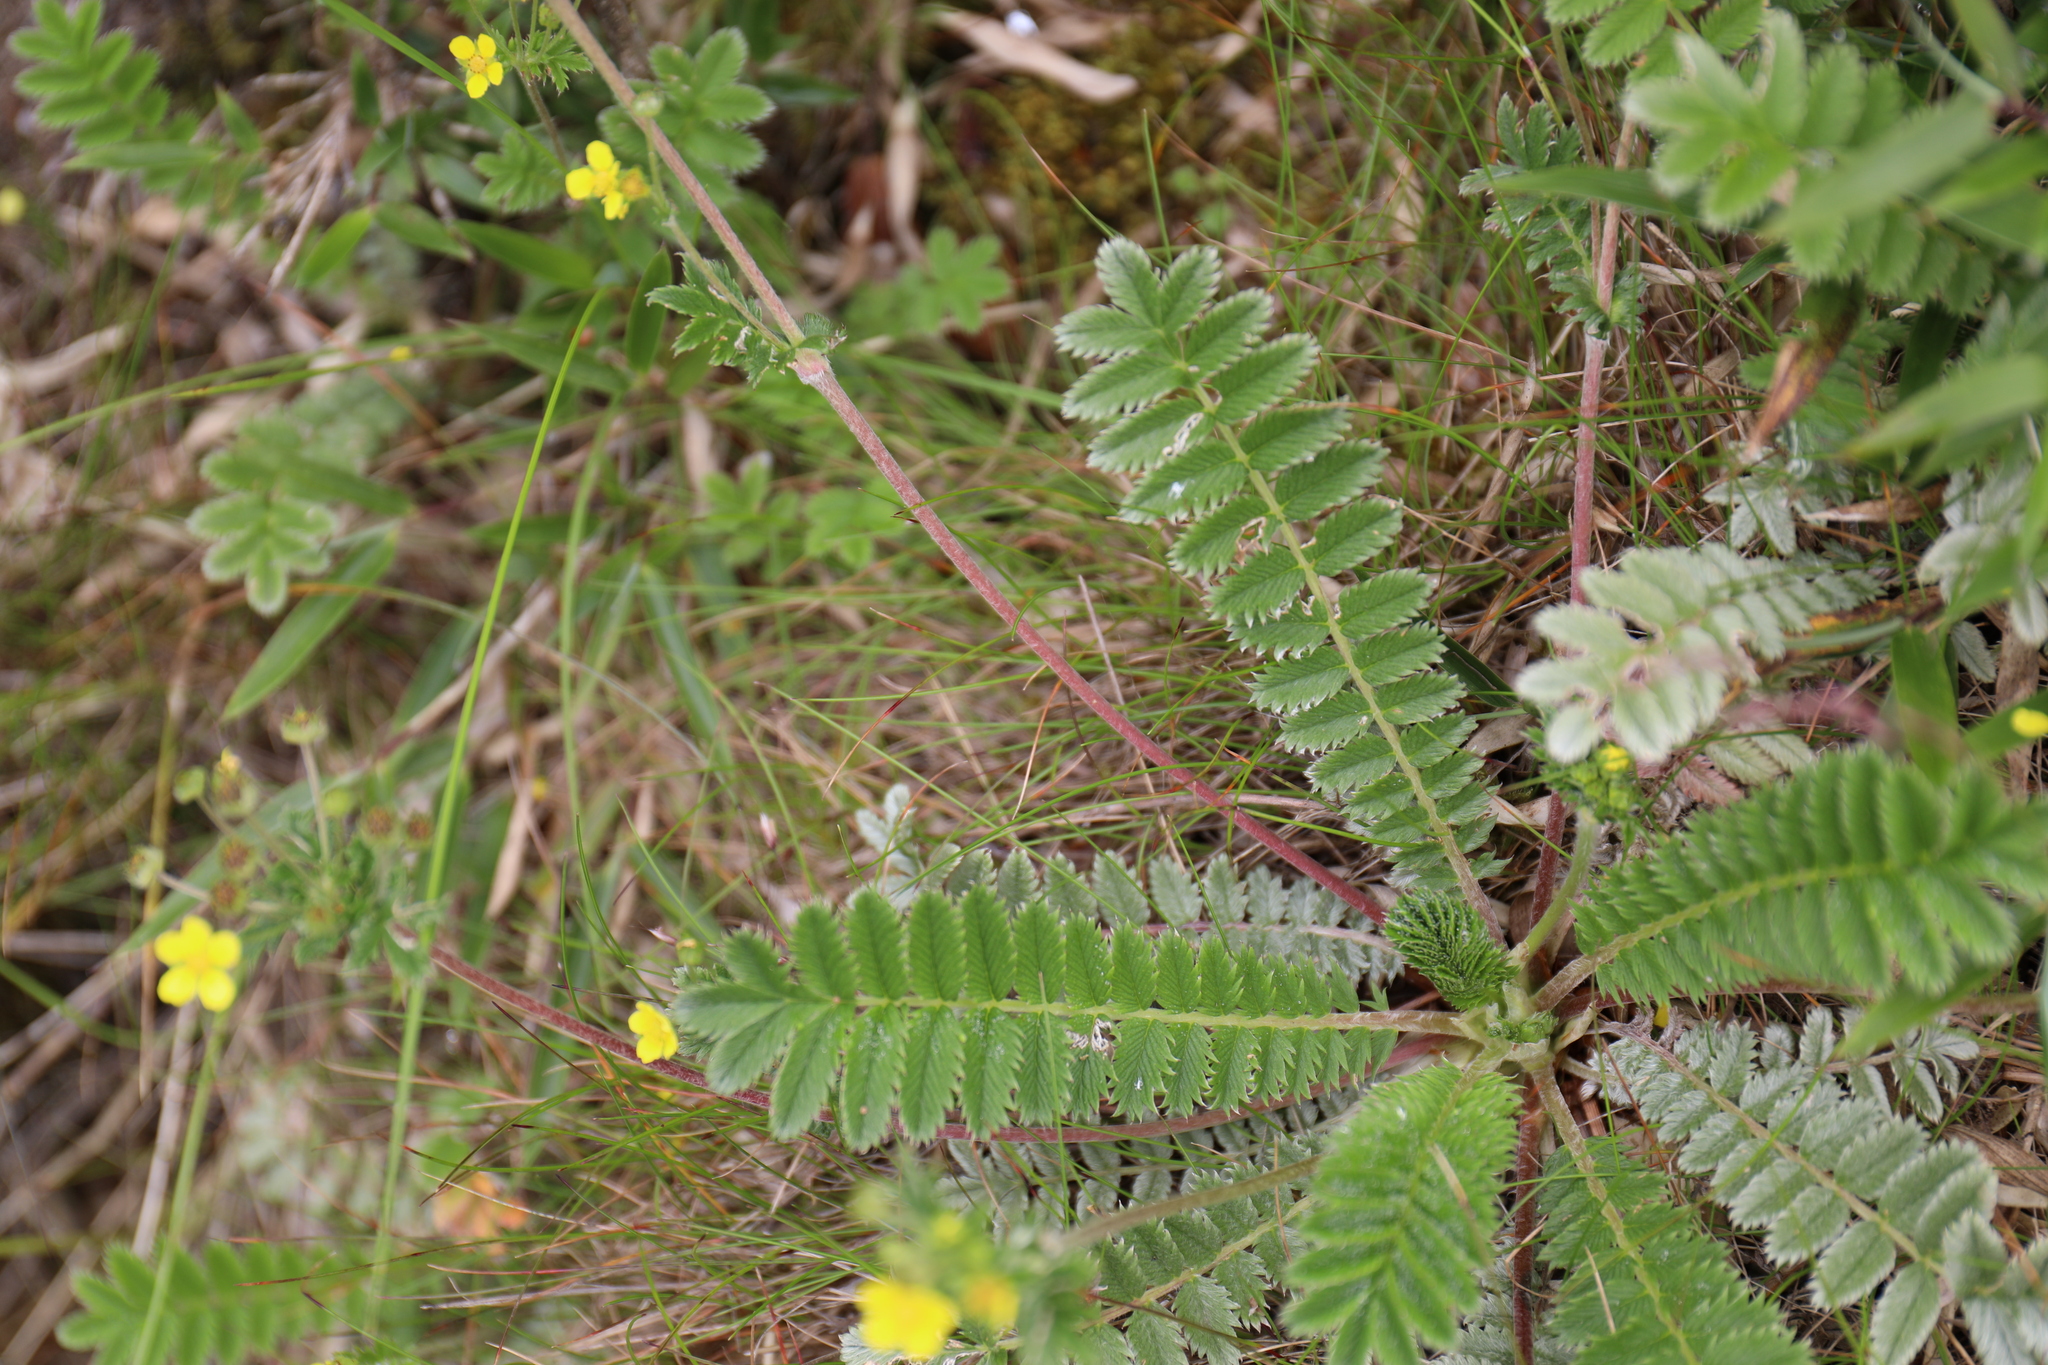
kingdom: Plantae
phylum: Tracheophyta
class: Magnoliopsida
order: Rosales
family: Rosaceae
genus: Argentina
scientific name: Argentina leuconota
